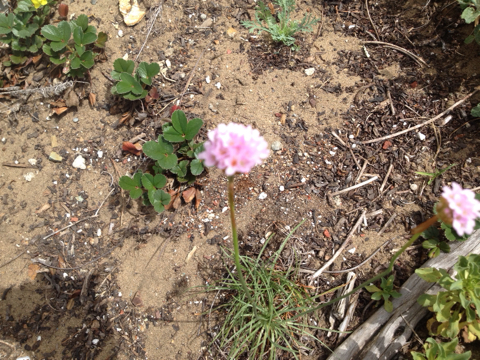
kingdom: Plantae
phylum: Tracheophyta
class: Magnoliopsida
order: Caryophyllales
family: Plumbaginaceae
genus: Armeria
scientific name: Armeria maritima
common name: Thrift
